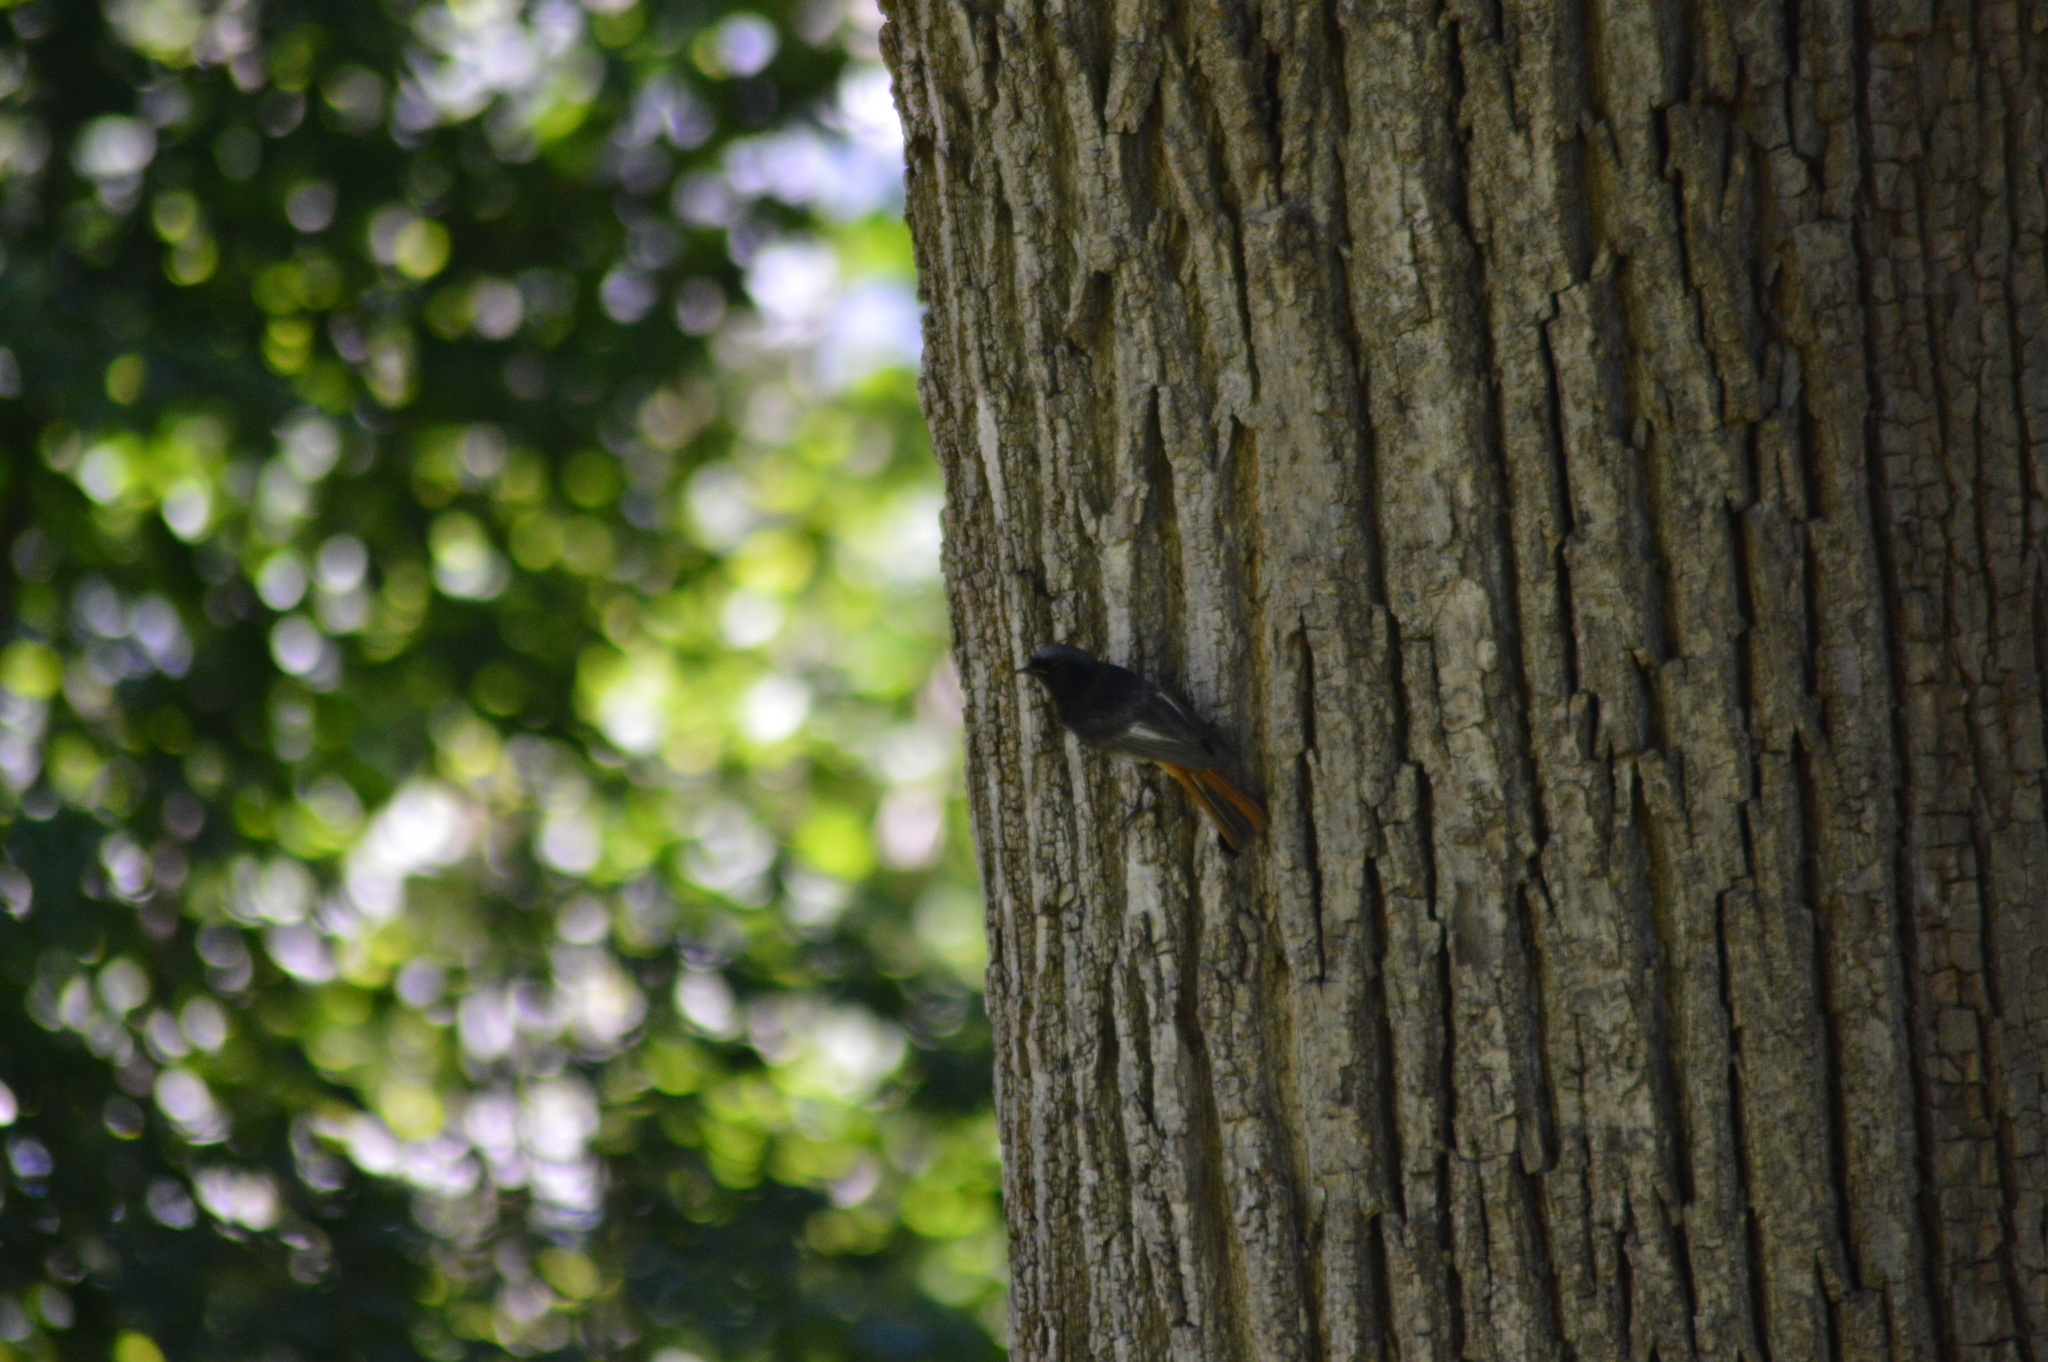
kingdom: Animalia
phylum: Chordata
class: Aves
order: Passeriformes
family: Muscicapidae
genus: Phoenicurus
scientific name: Phoenicurus ochruros
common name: Black redstart
